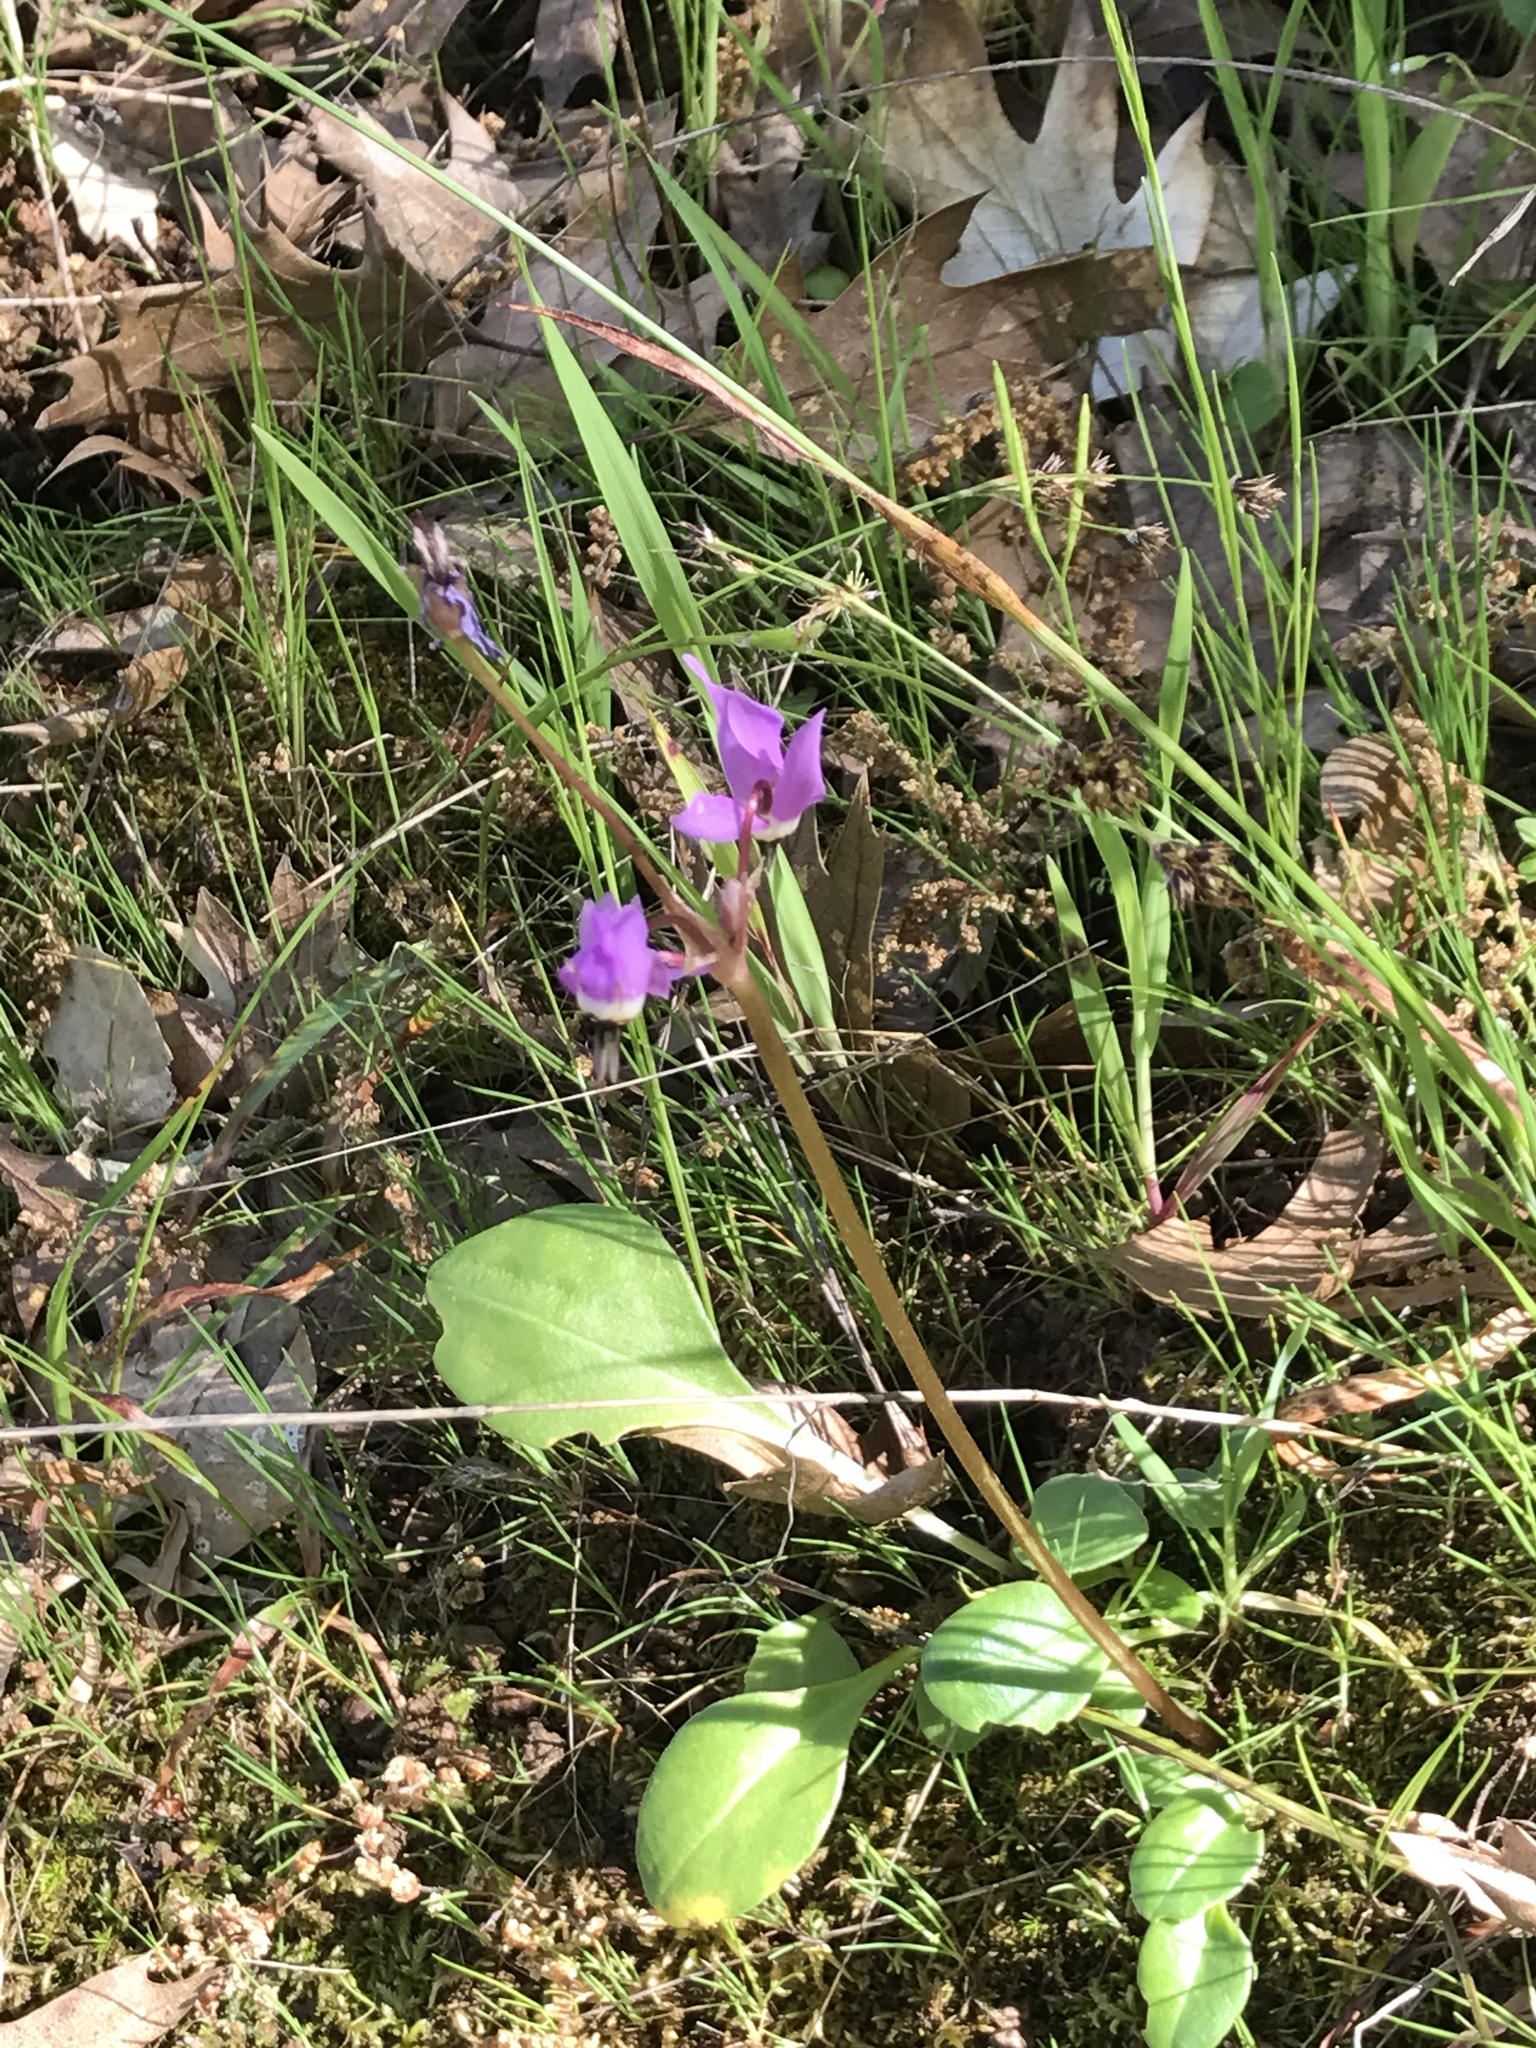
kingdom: Plantae
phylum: Tracheophyta
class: Magnoliopsida
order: Ericales
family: Primulaceae
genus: Dodecatheon
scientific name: Dodecatheon hendersonii
